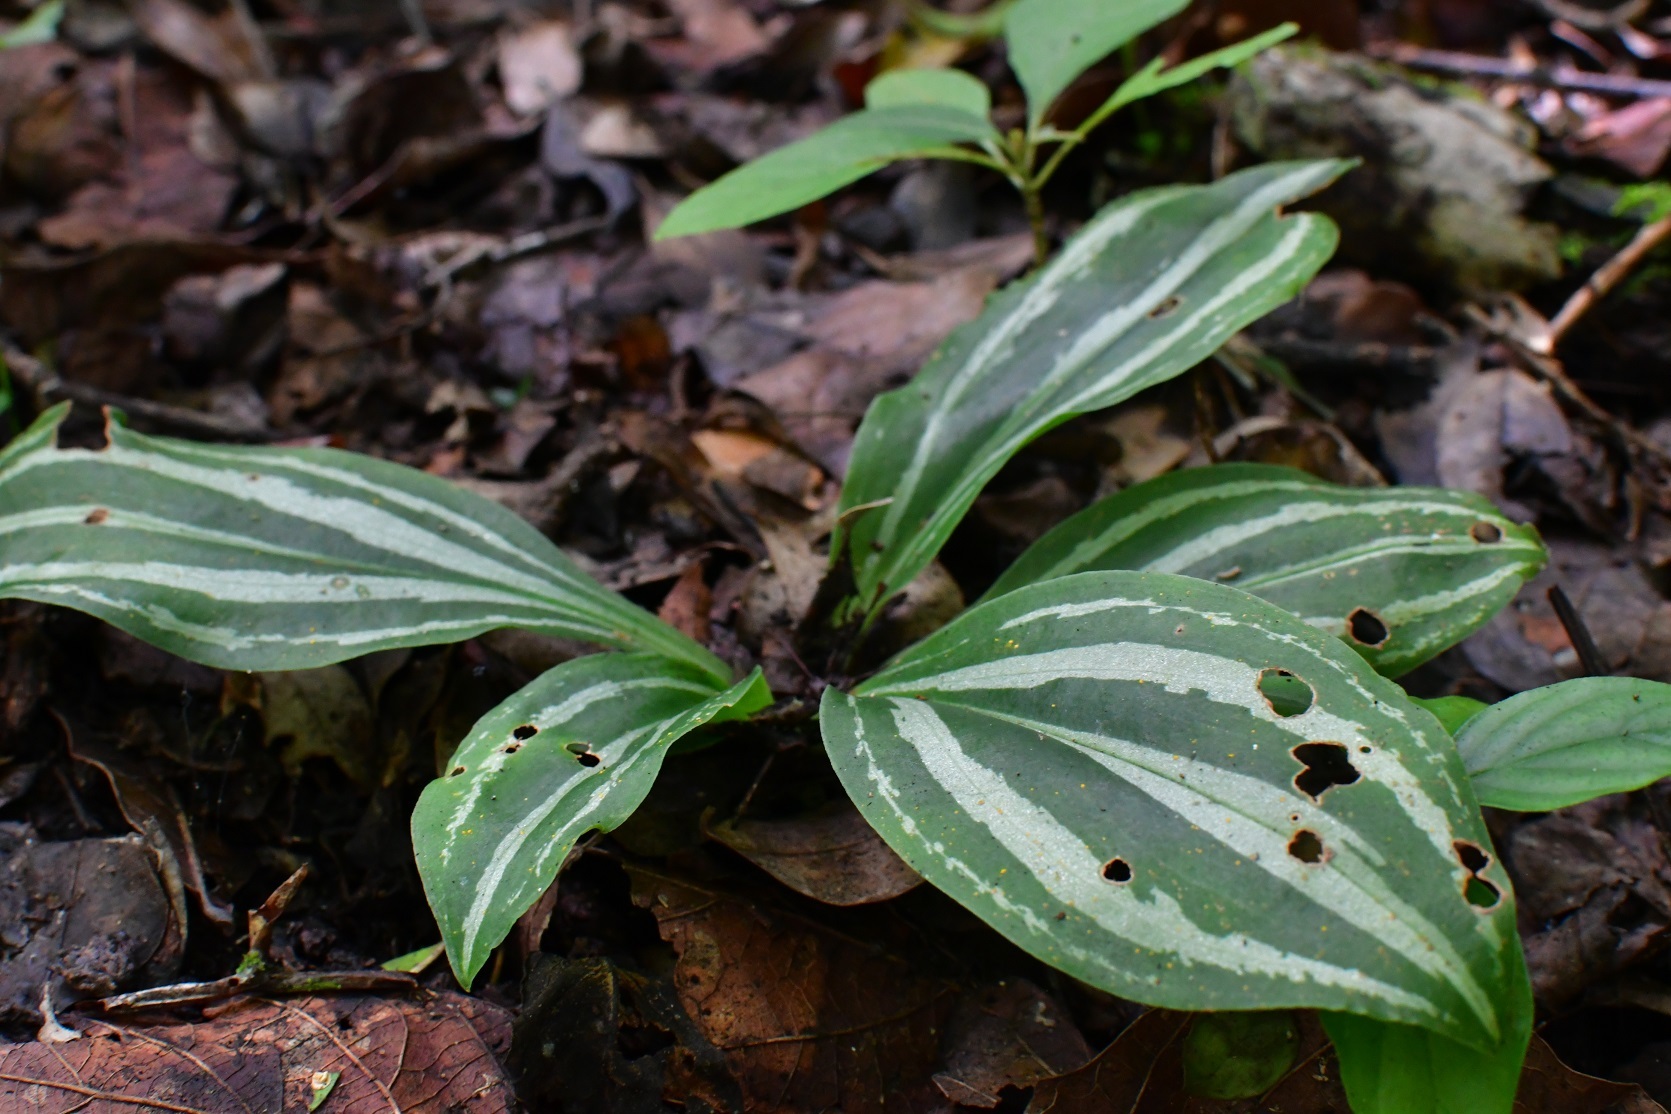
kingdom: Plantae
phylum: Tracheophyta
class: Liliopsida
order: Asparagales
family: Orchidaceae
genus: Sarcoglottis
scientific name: Sarcoglottis sceptrodes
